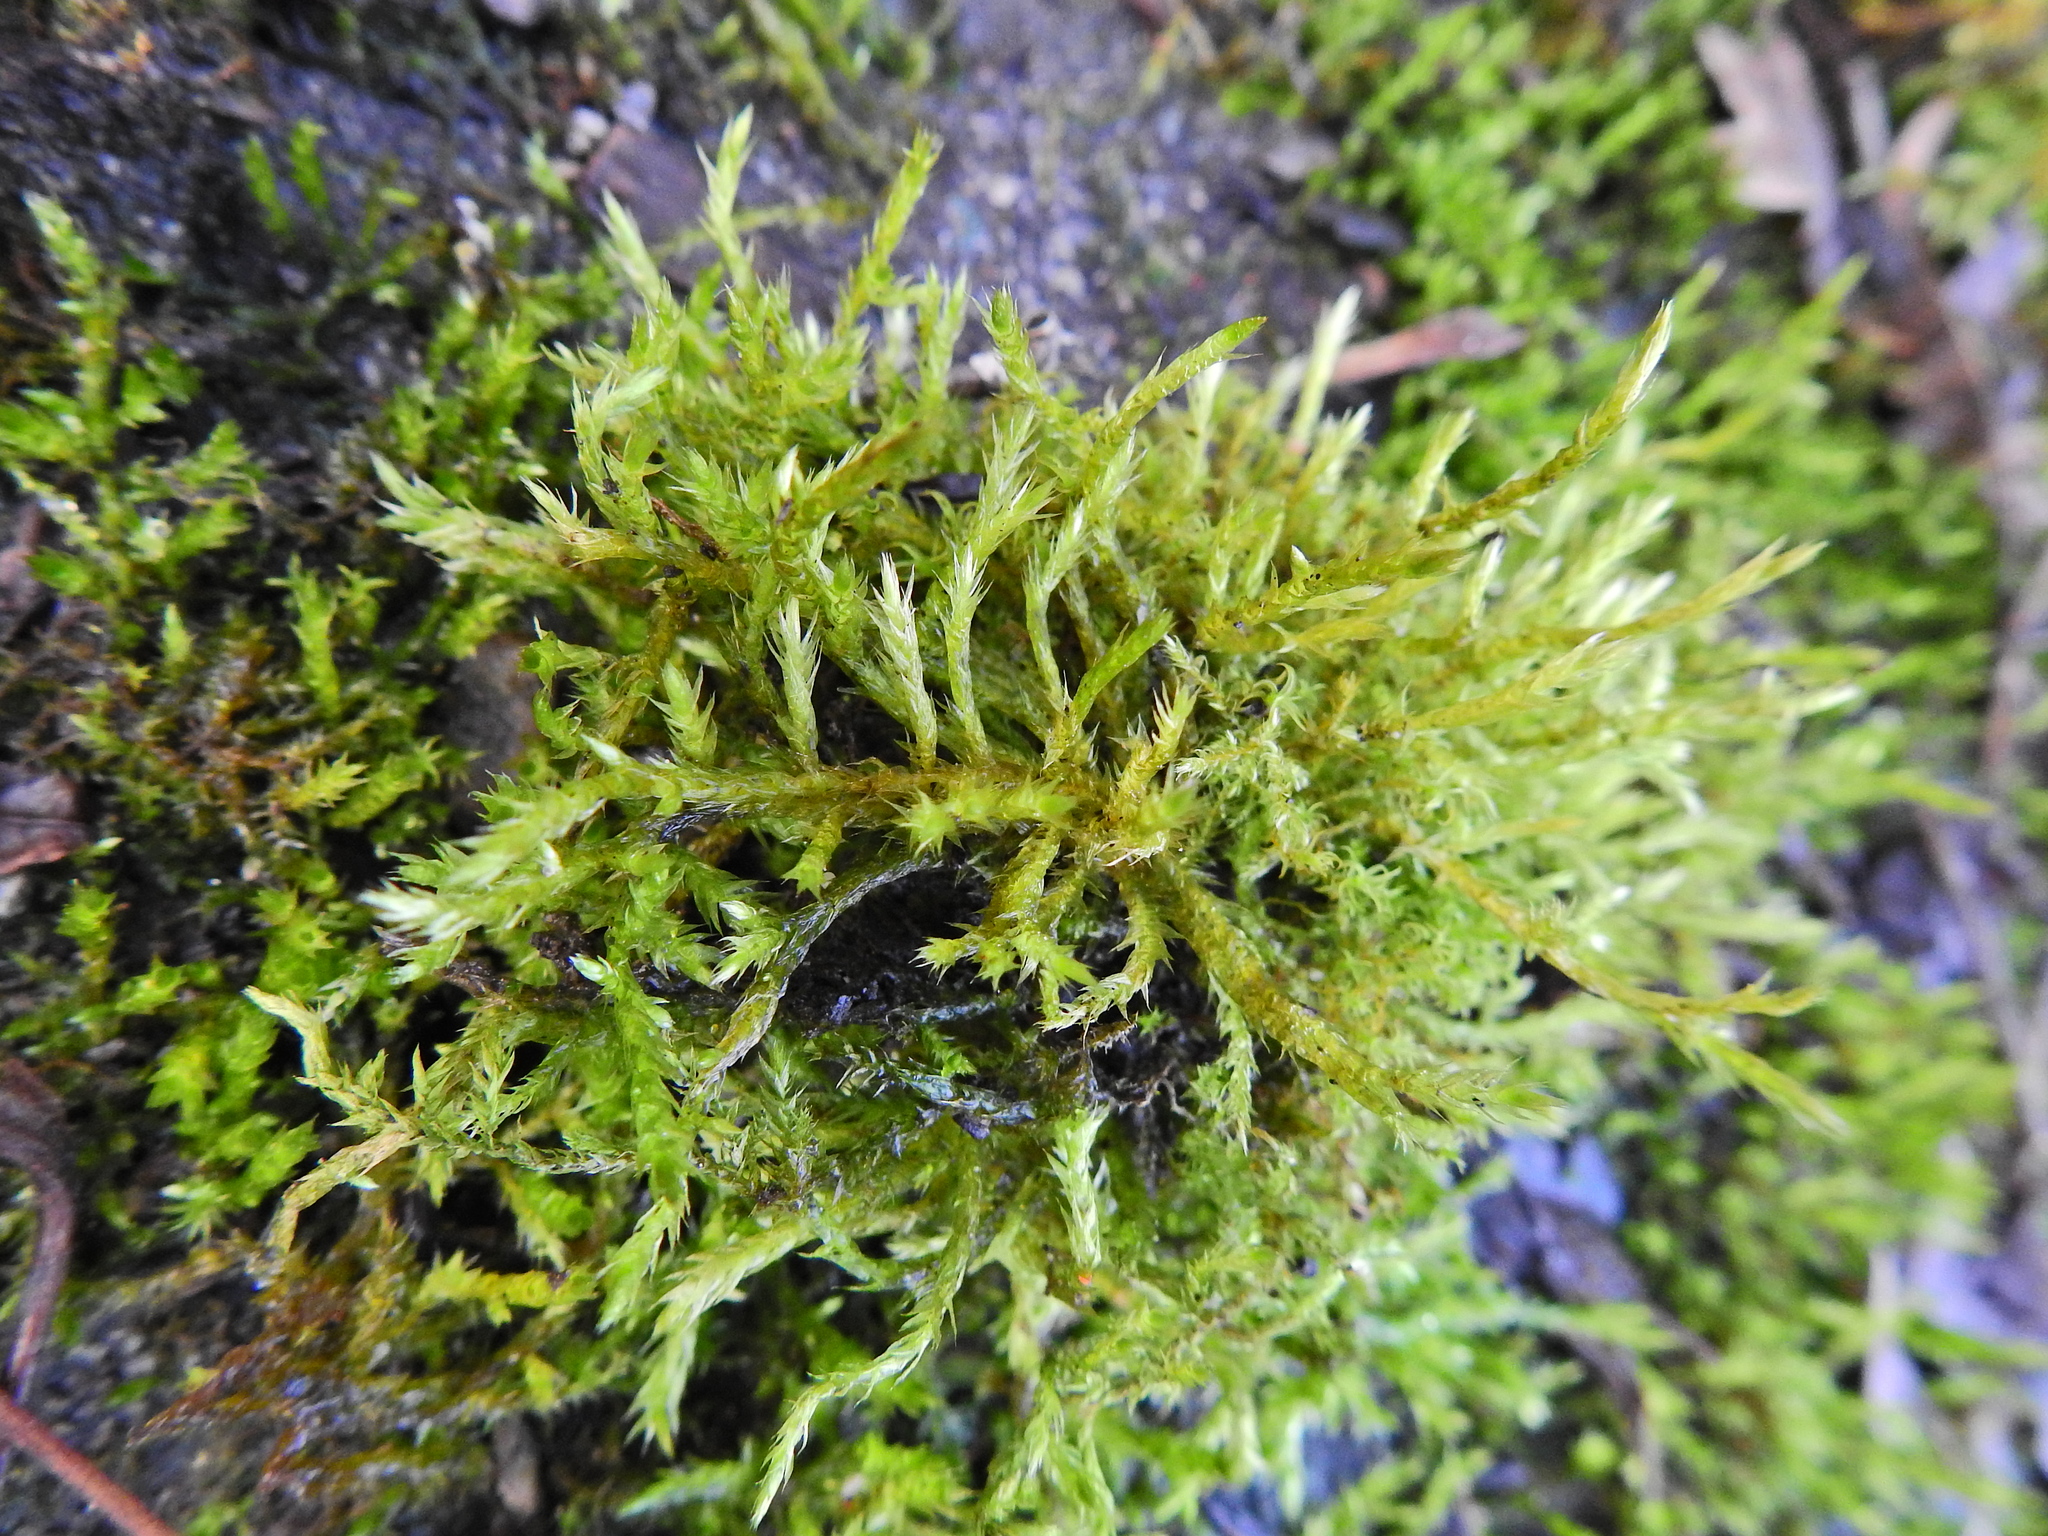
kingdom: Plantae
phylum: Bryophyta
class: Bryopsida
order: Hypnales
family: Pylaisiaceae
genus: Calliergonella
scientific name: Calliergonella cuspidata
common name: Common large wetland moss
